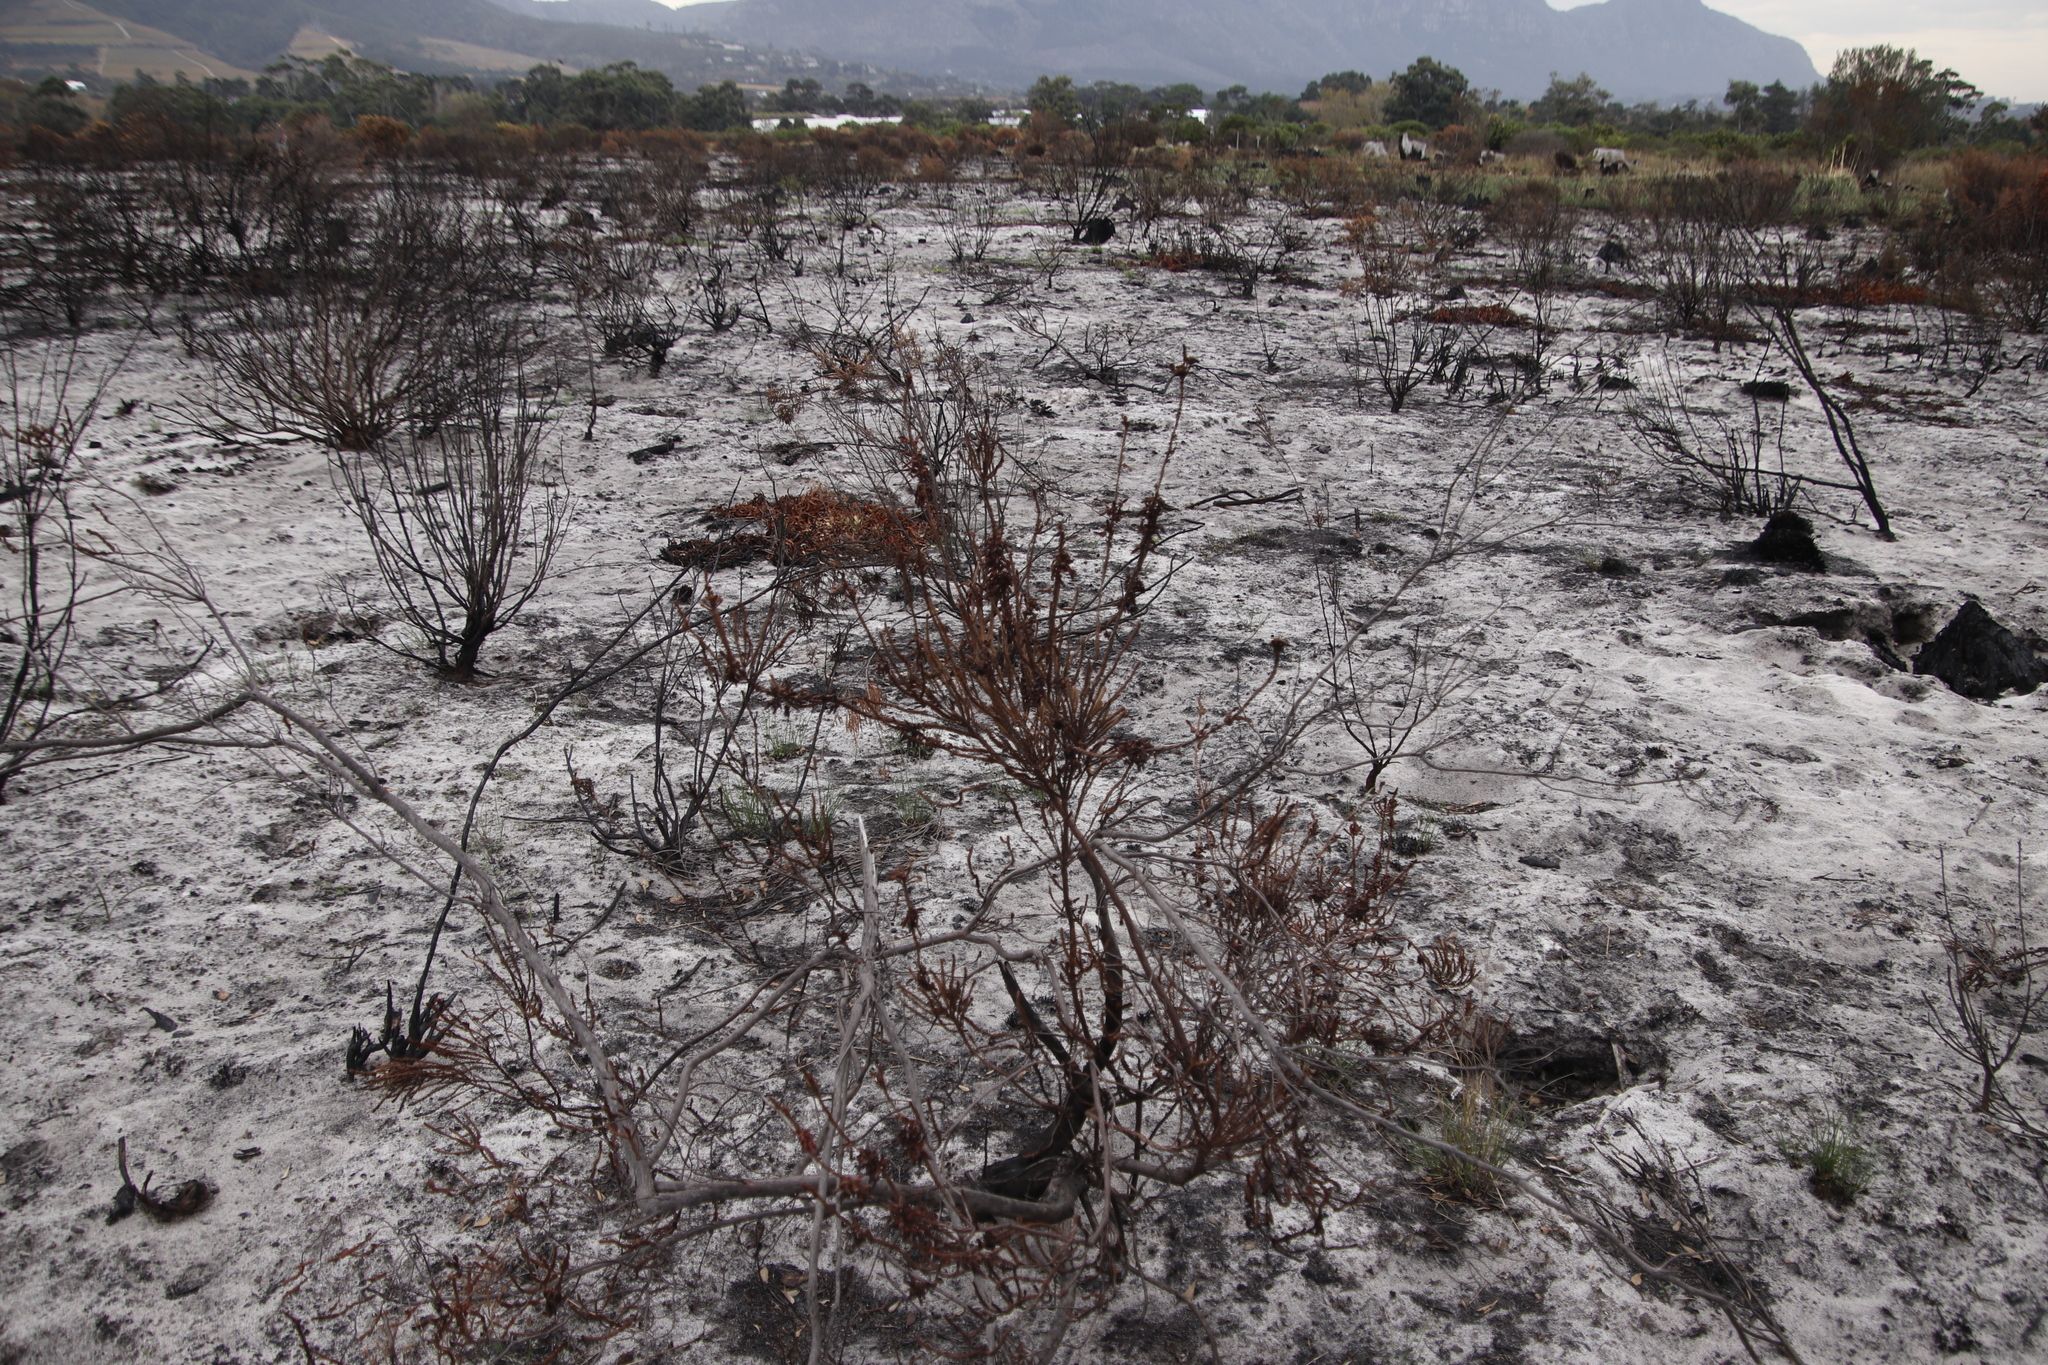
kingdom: Plantae
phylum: Tracheophyta
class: Magnoliopsida
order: Ericales
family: Ericaceae
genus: Erica
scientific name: Erica mammosa
